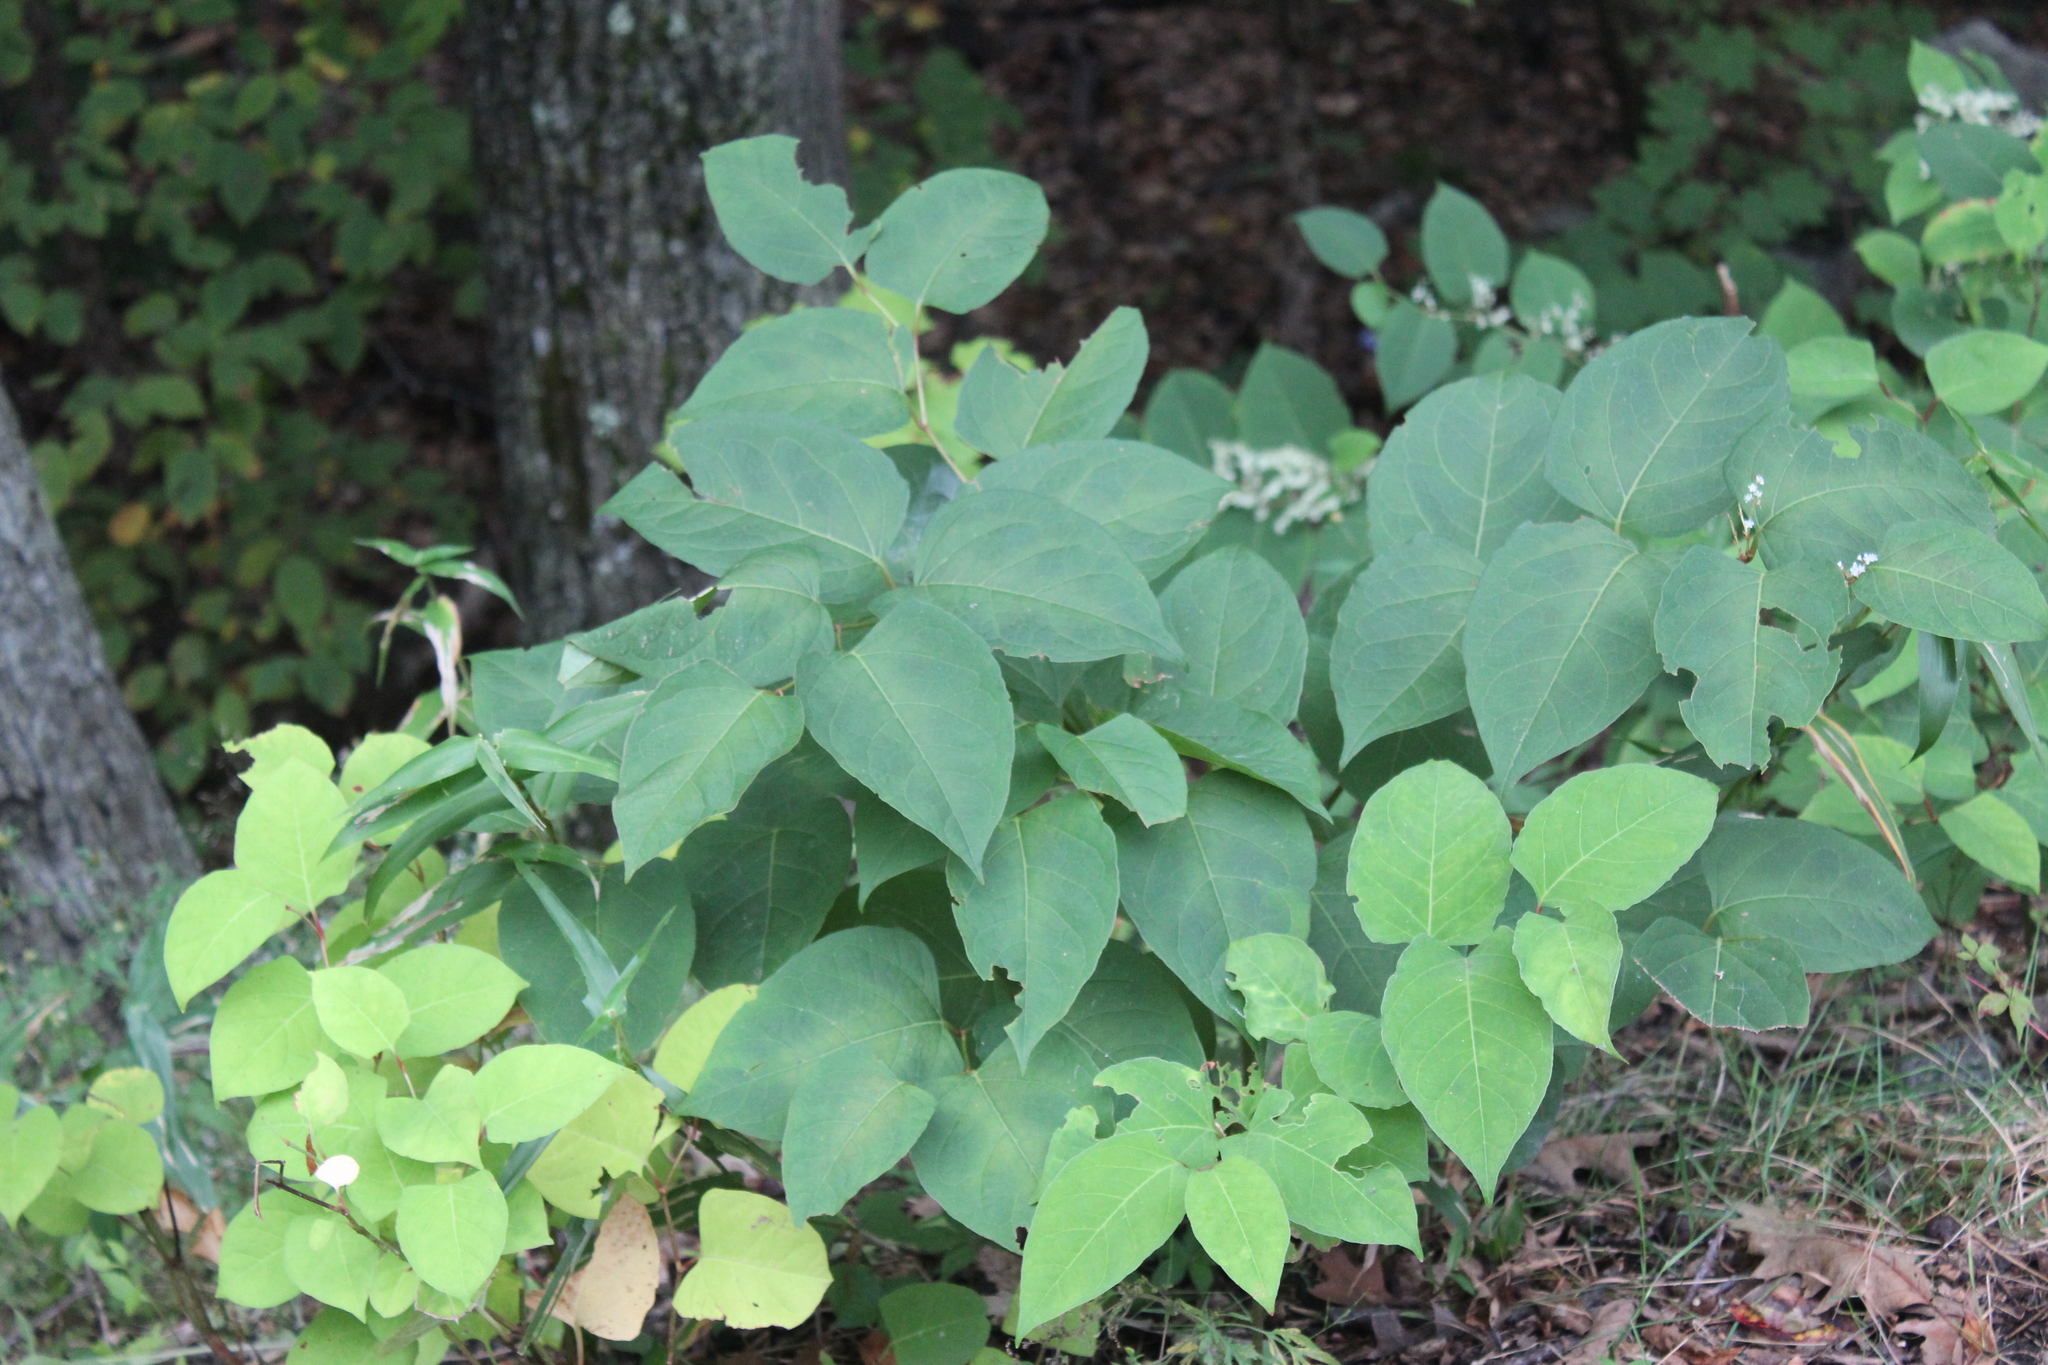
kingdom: Plantae
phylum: Tracheophyta
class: Magnoliopsida
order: Caryophyllales
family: Polygonaceae
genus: Reynoutria
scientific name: Reynoutria japonica
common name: Japanese knotweed
